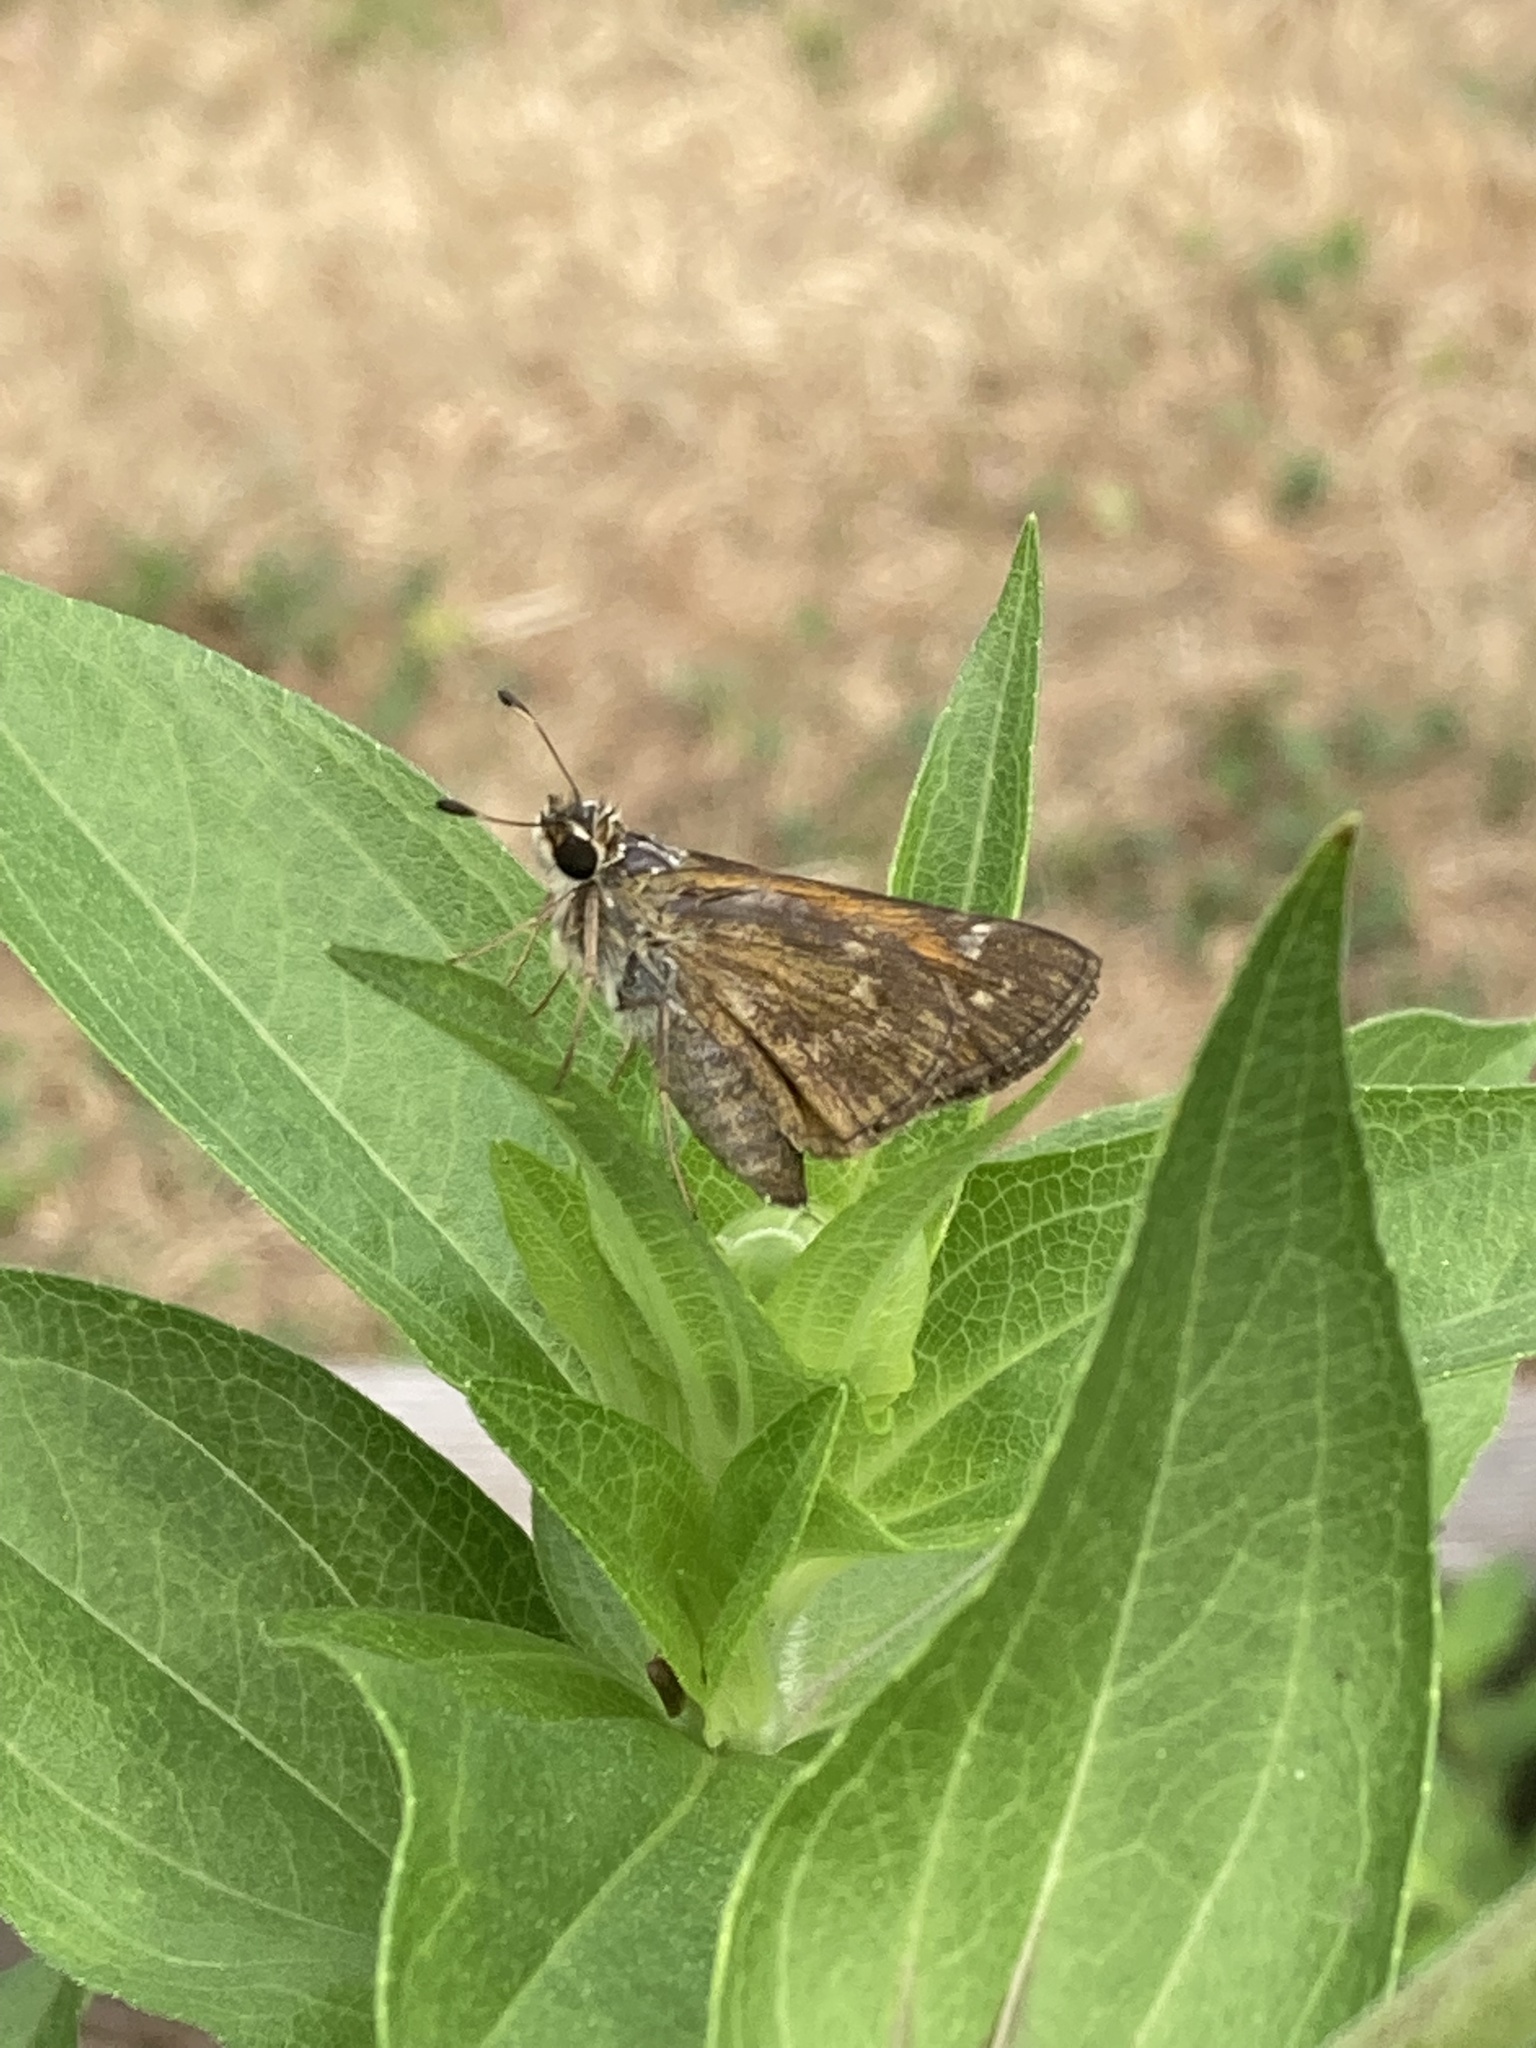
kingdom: Animalia
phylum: Arthropoda
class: Insecta
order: Lepidoptera
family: Hesperiidae
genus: Atalopedes
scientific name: Atalopedes
